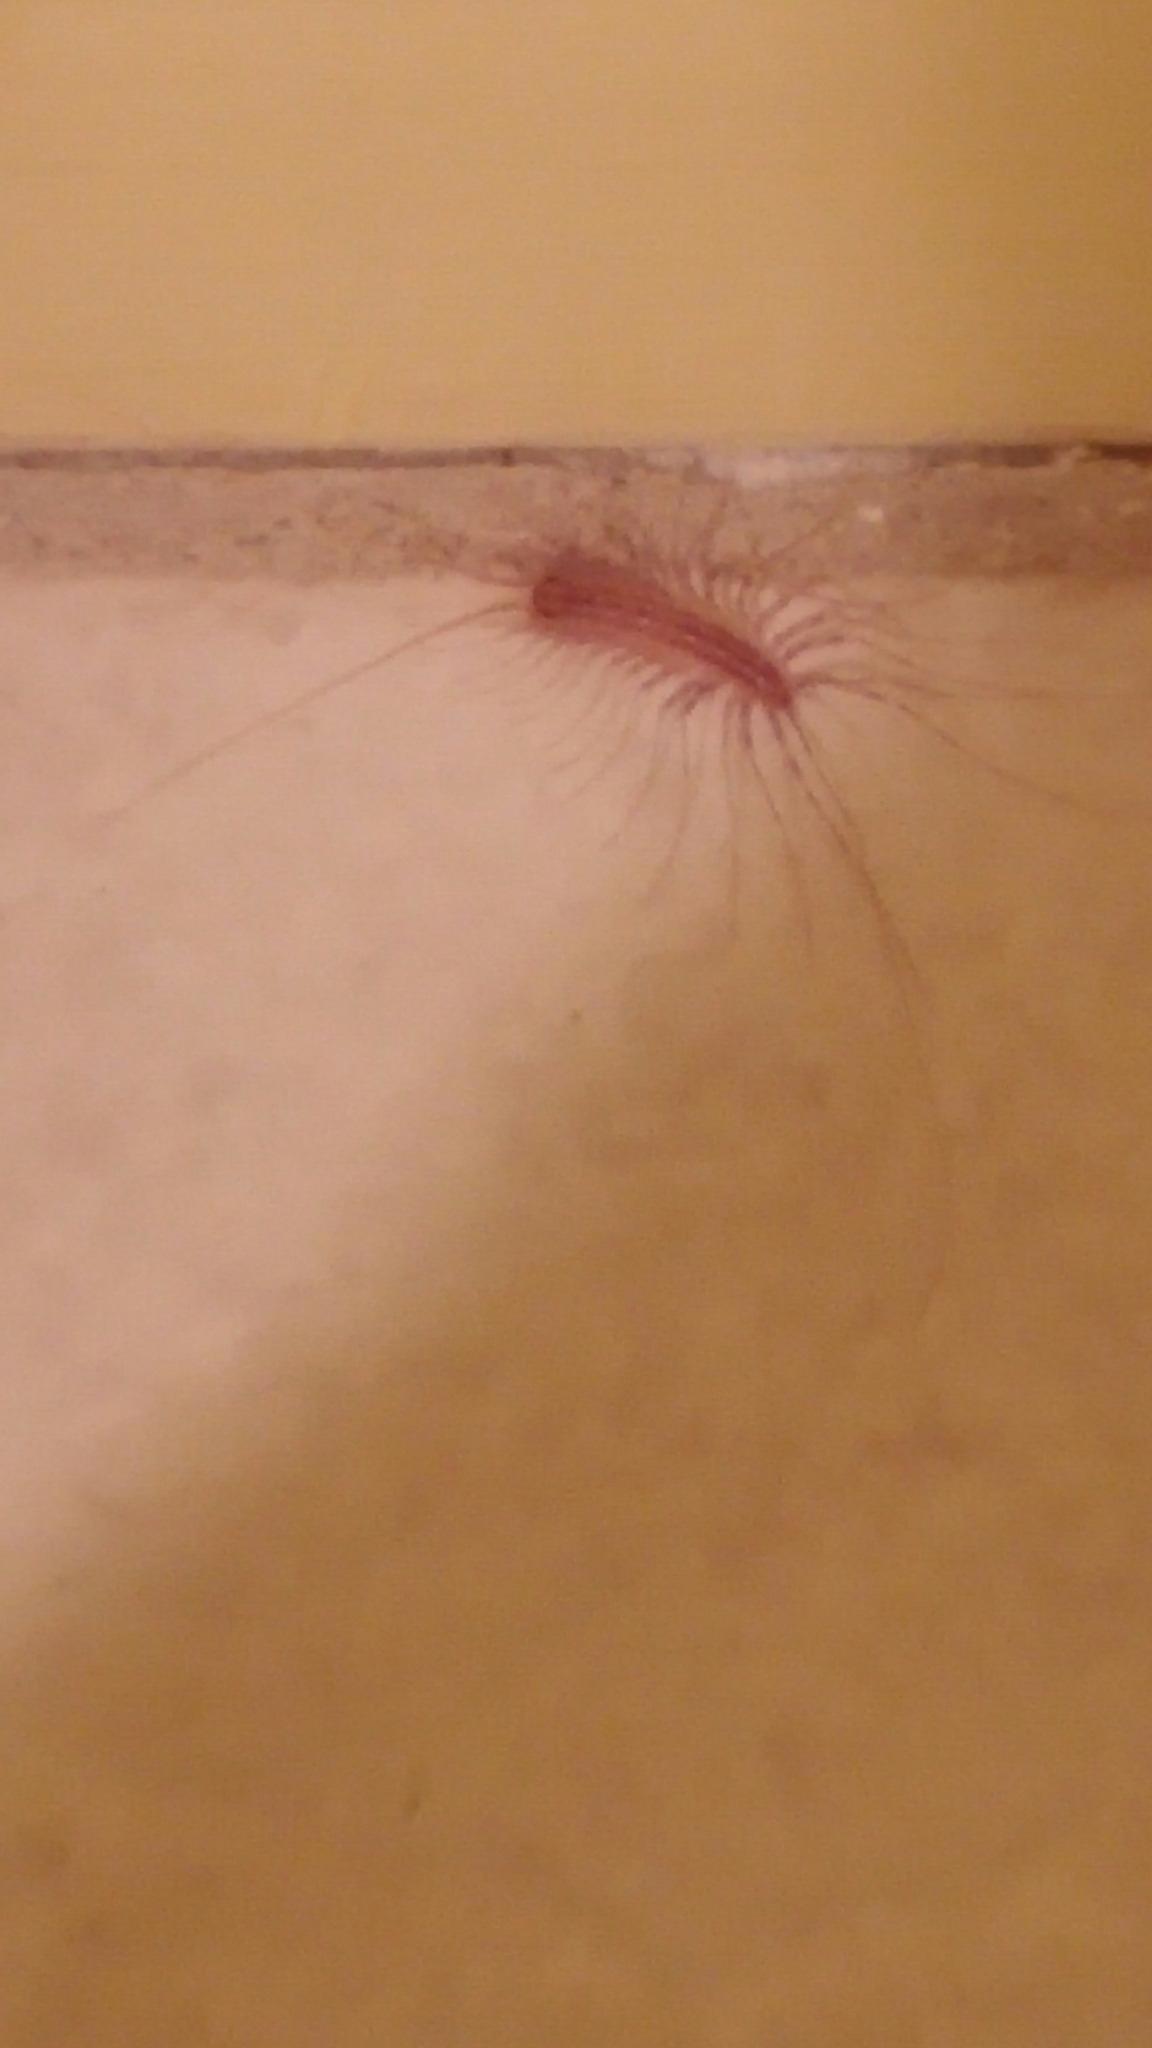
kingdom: Animalia
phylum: Arthropoda
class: Chilopoda
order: Scutigeromorpha
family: Scutigeridae
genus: Scutigera
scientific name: Scutigera coleoptrata
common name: House centipede
